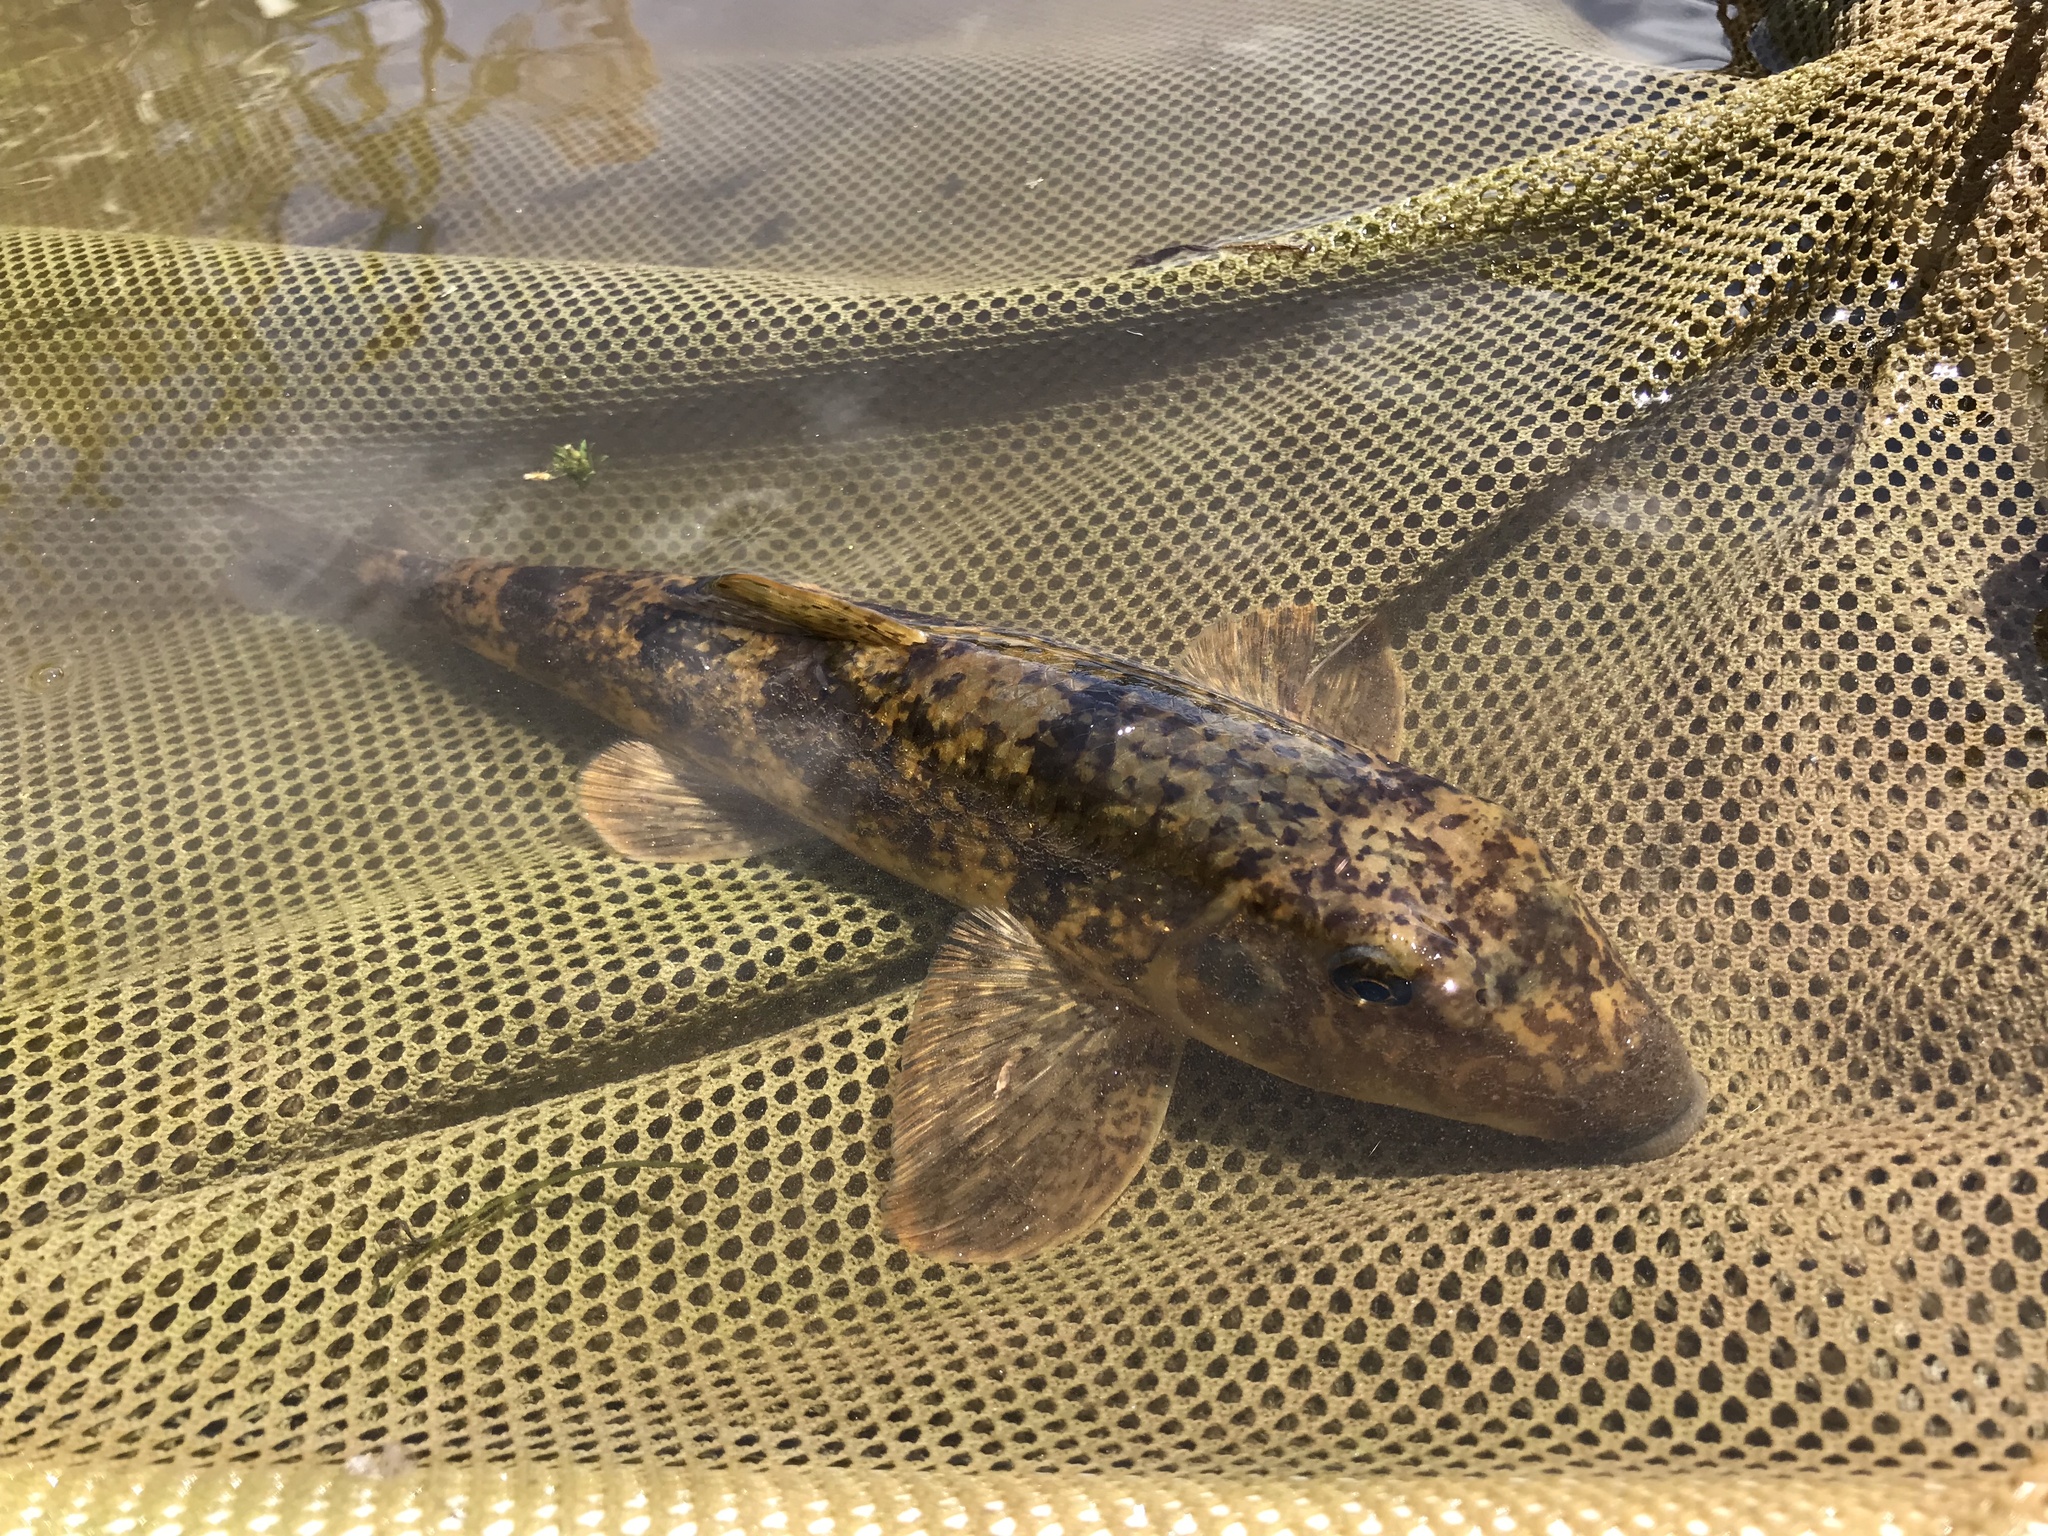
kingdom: Animalia
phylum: Chordata
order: Cypriniformes
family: Catostomidae
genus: Hypentelium
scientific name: Hypentelium nigricans
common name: Northern hog sucker
